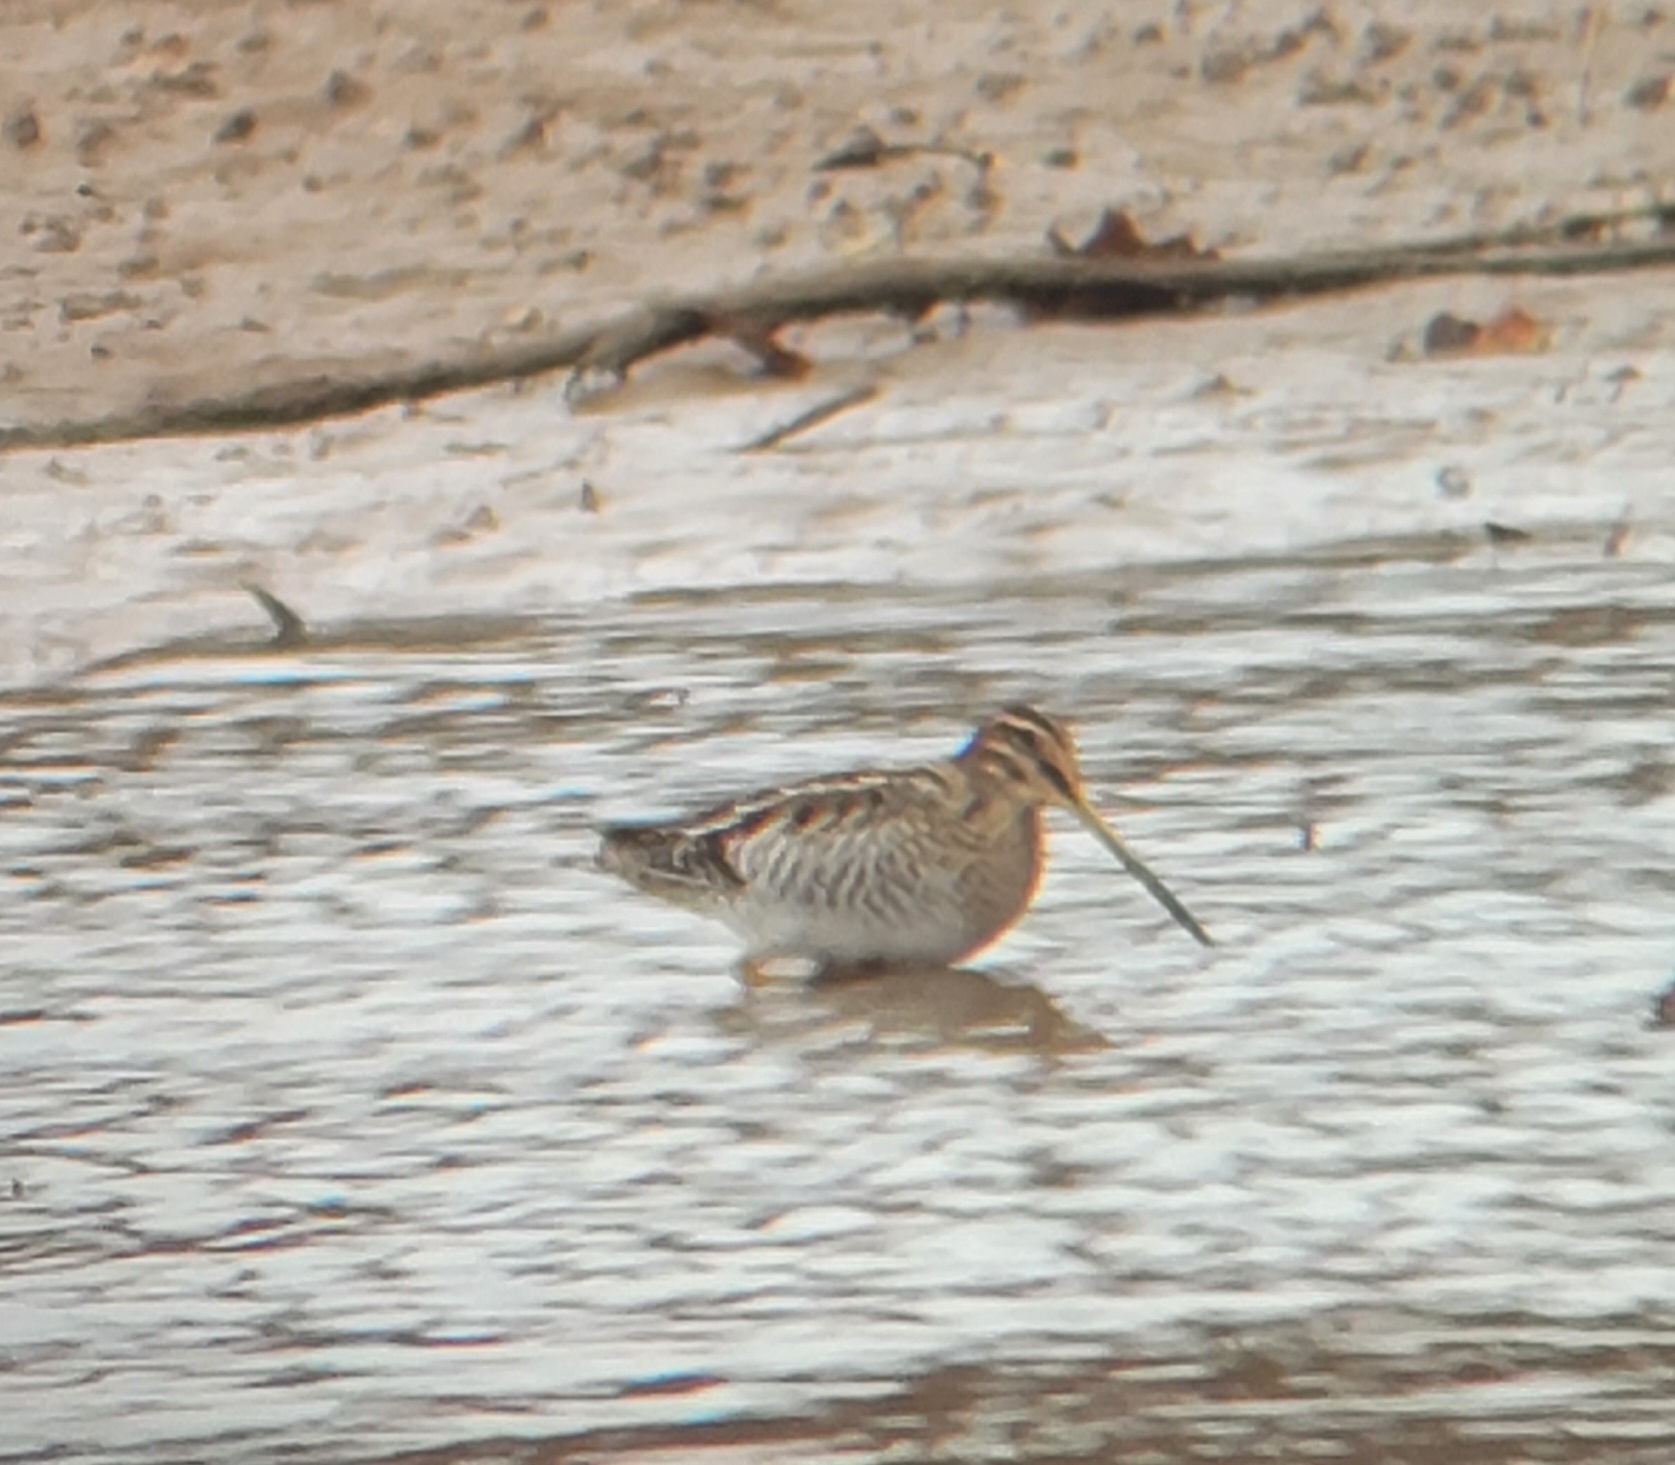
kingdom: Animalia
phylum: Chordata
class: Aves
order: Charadriiformes
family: Scolopacidae
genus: Gallinago
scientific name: Gallinago delicata
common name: Wilson's snipe
